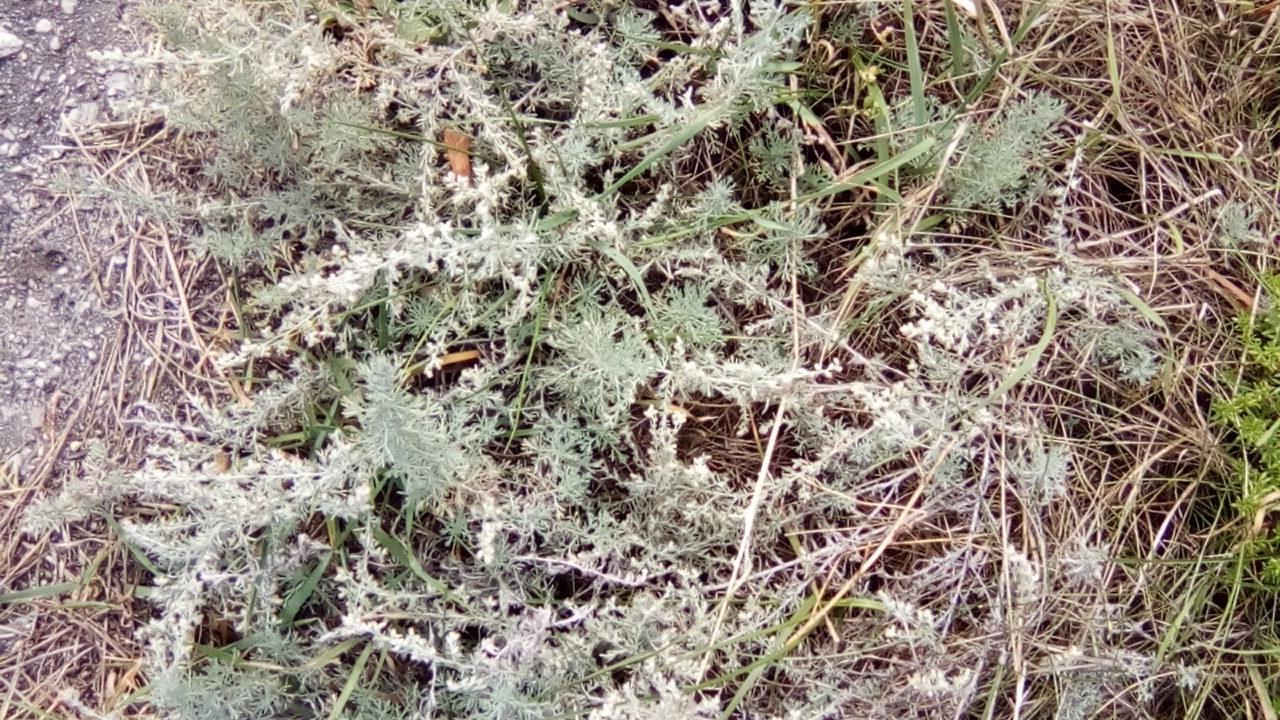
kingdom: Plantae
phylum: Tracheophyta
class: Magnoliopsida
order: Asterales
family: Asteraceae
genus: Artemisia
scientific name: Artemisia austriaca
